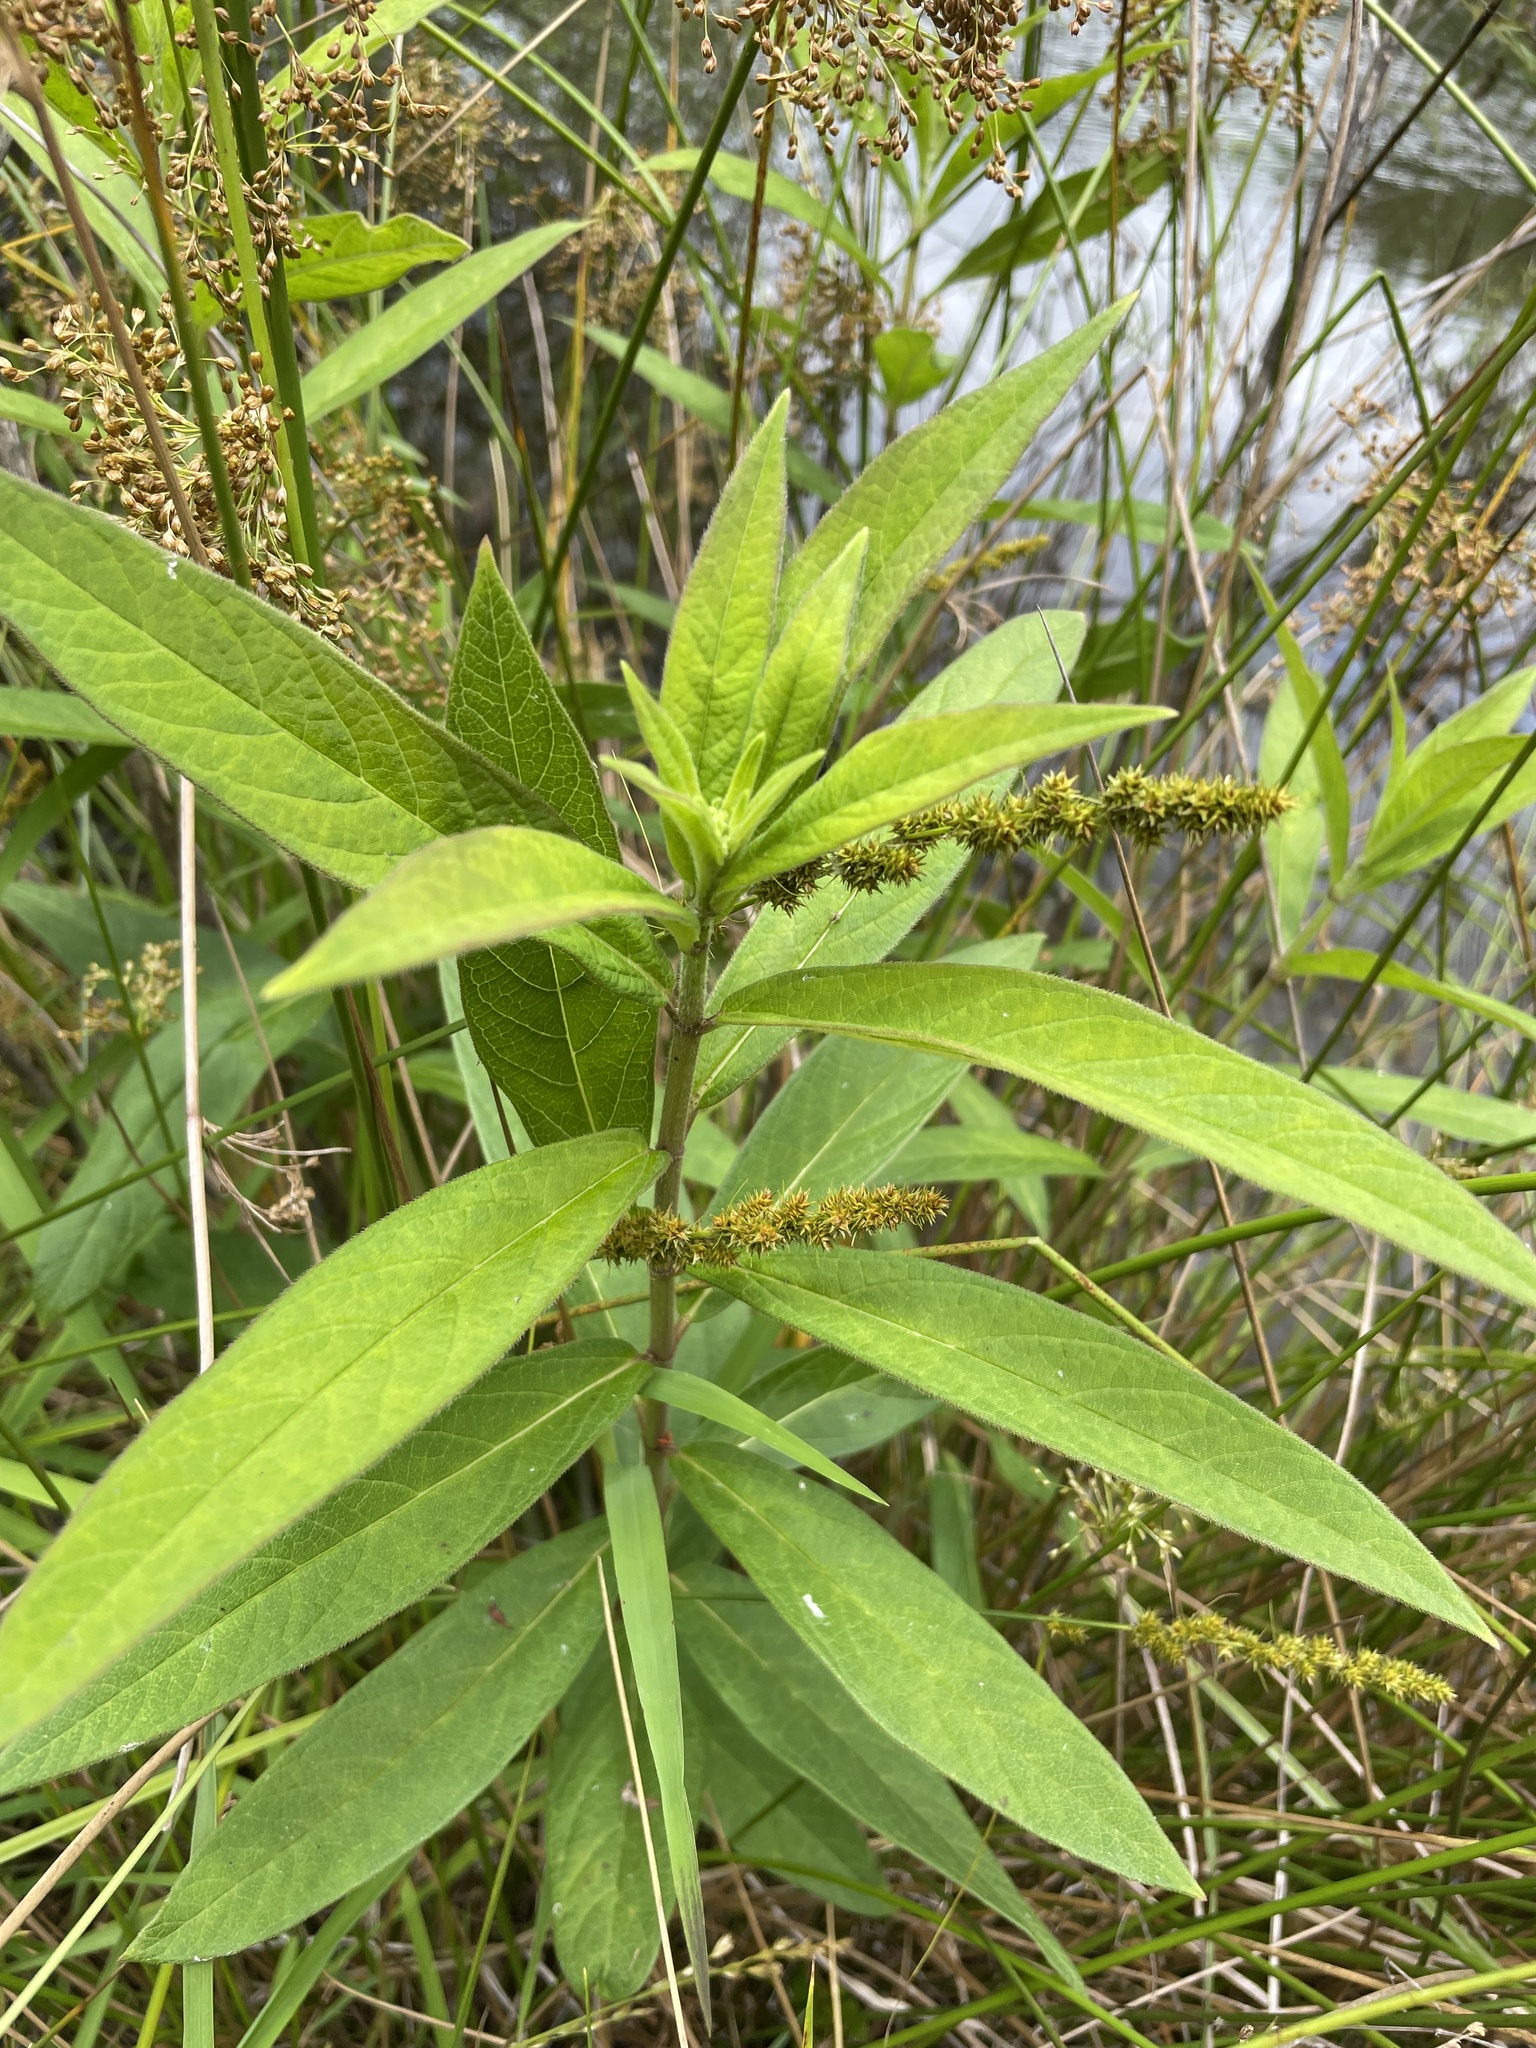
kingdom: Plantae
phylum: Tracheophyta
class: Magnoliopsida
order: Gentianales
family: Apocynaceae
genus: Asclepias
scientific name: Asclepias incarnata
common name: Swamp milkweed
